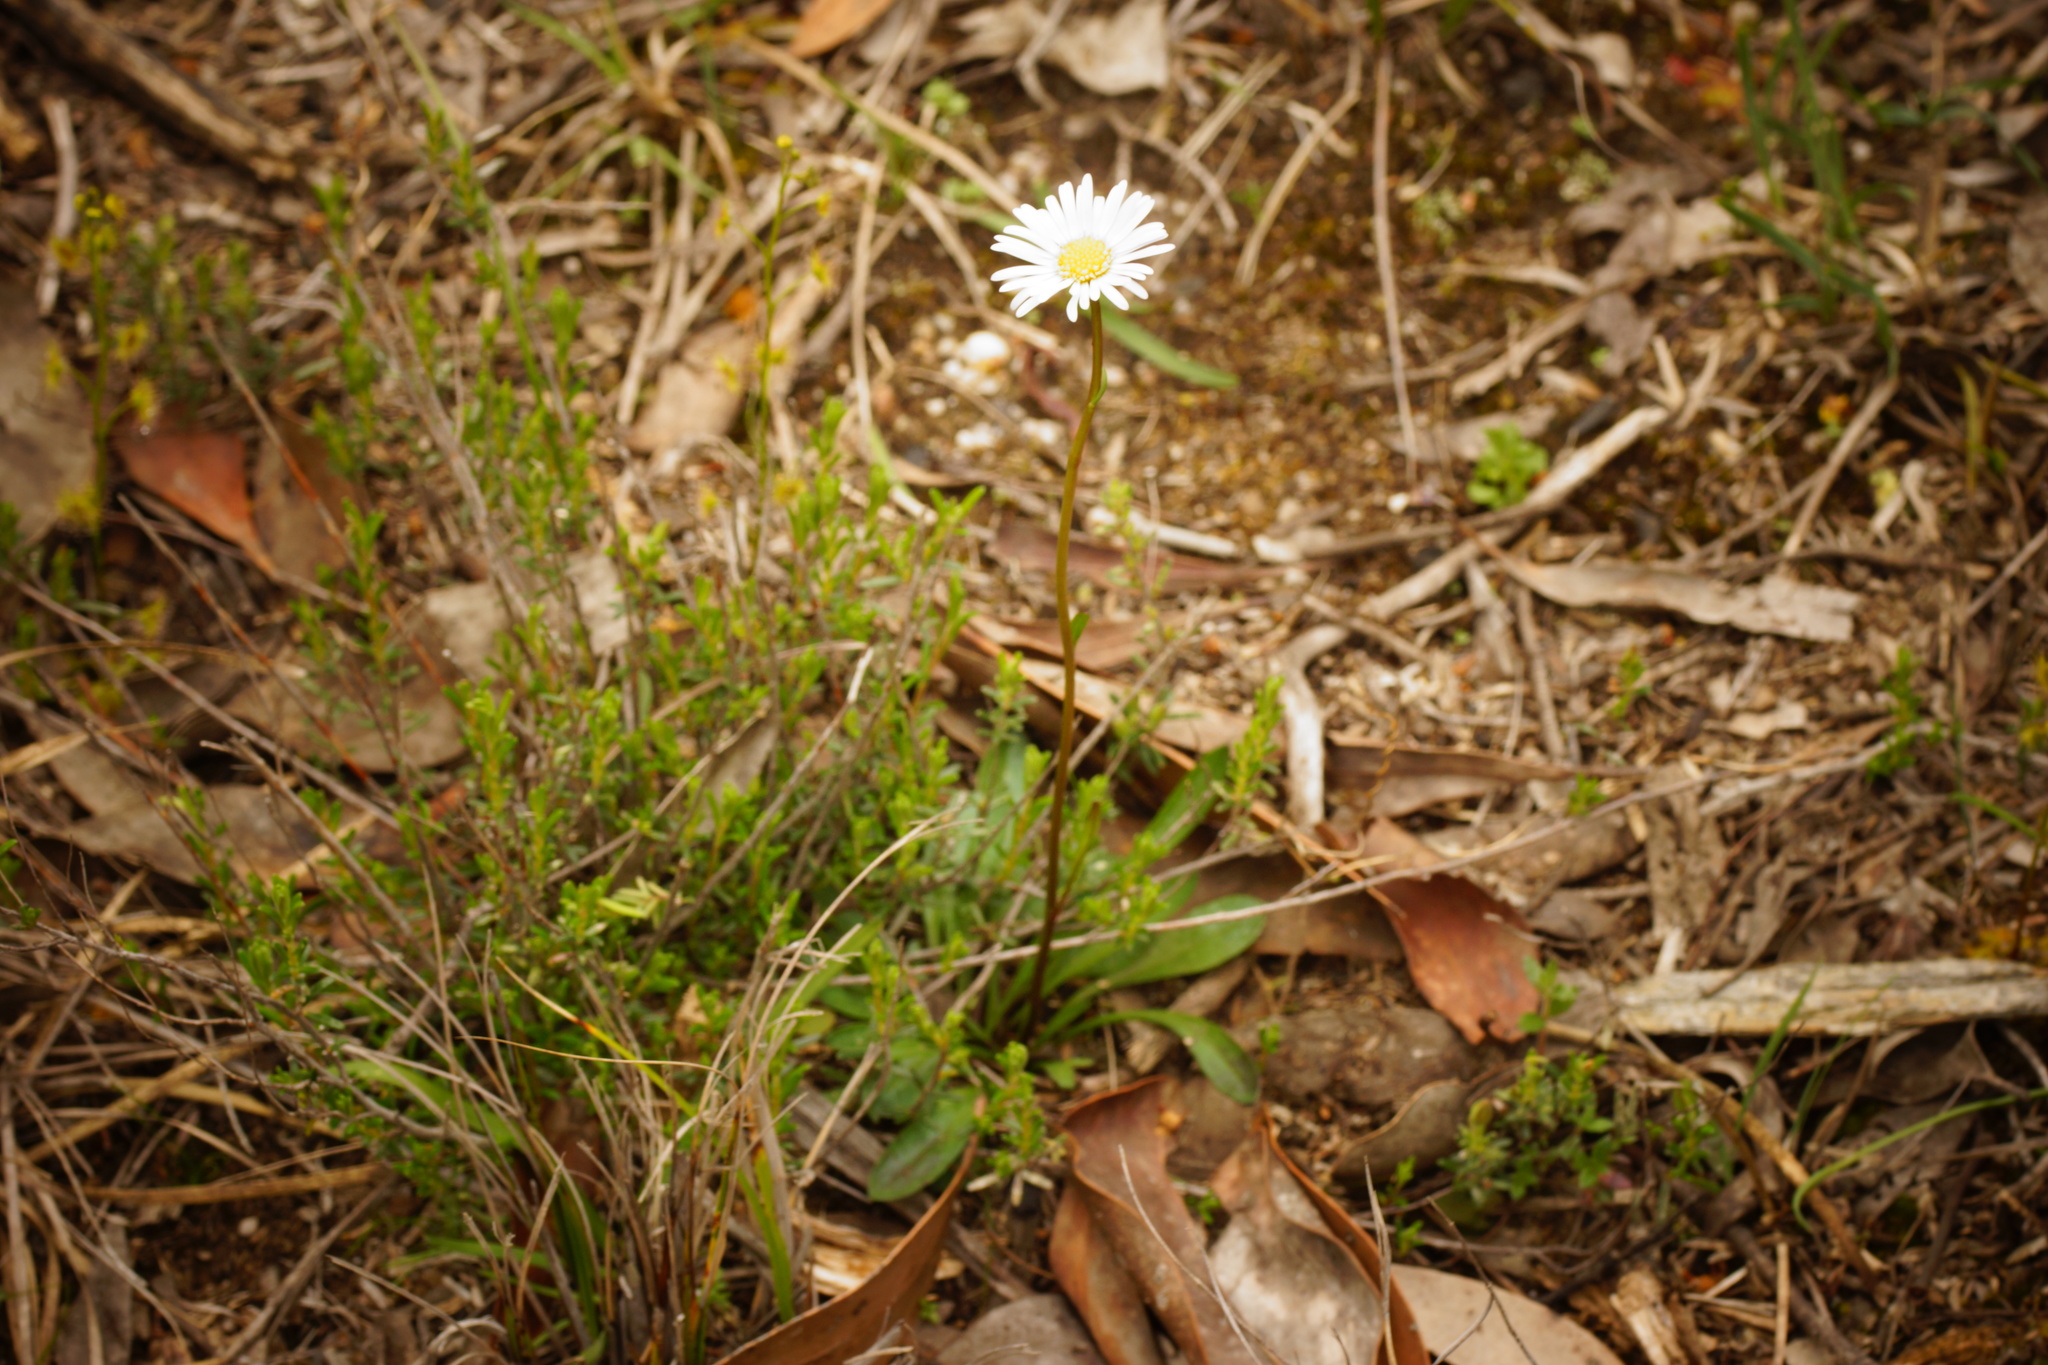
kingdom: Plantae
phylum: Tracheophyta
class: Magnoliopsida
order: Asterales
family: Asteraceae
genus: Allittia
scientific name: Allittia uliginosa
